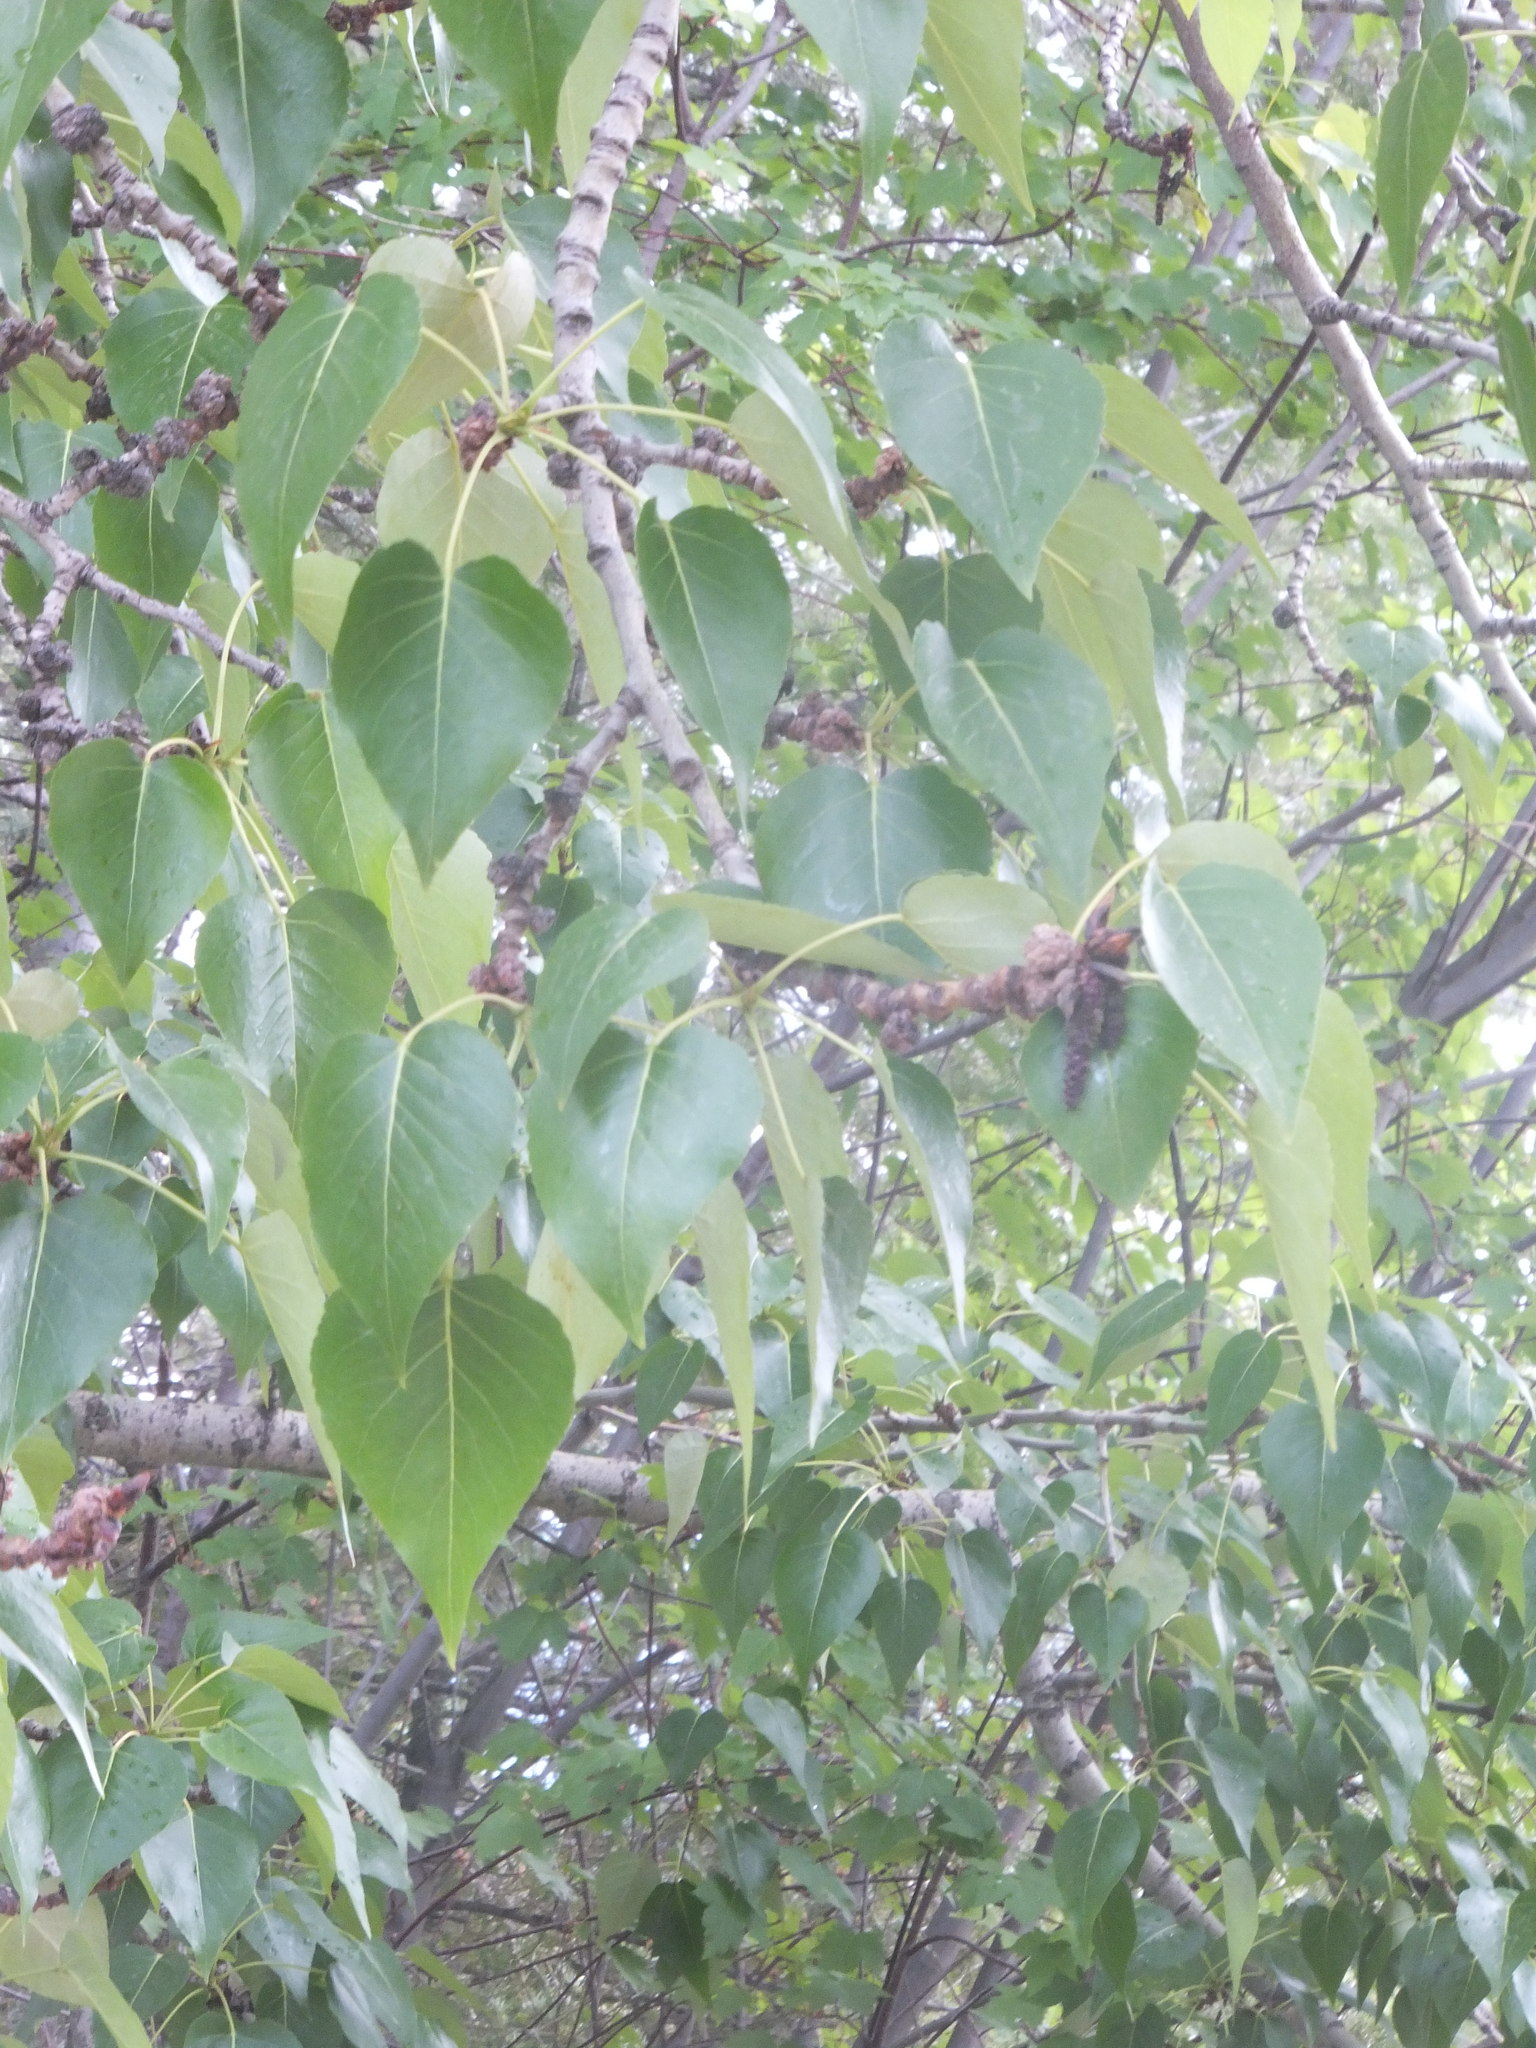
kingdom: Plantae
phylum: Tracheophyta
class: Magnoliopsida
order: Malpighiales
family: Salicaceae
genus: Populus
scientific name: Populus trichocarpa
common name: Black cottonwood
